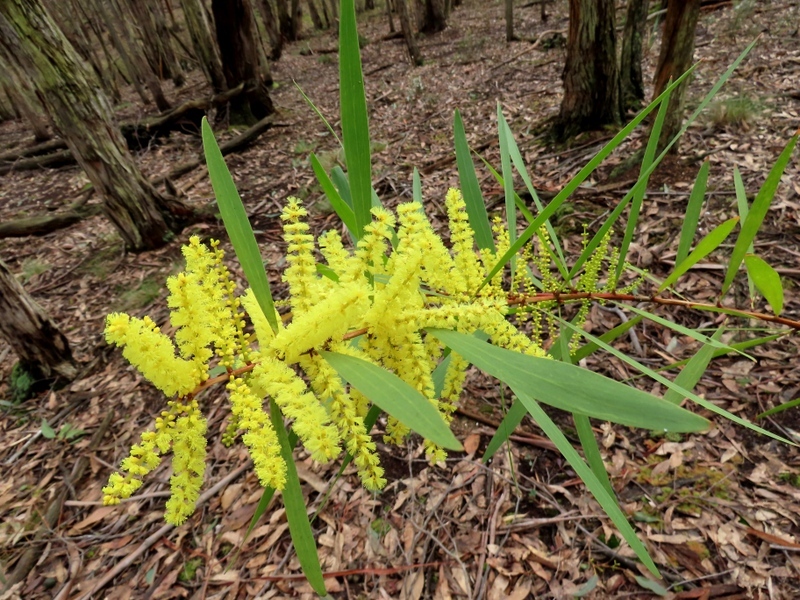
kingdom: Plantae
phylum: Tracheophyta
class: Magnoliopsida
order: Fabales
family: Fabaceae
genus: Acacia
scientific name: Acacia longifolia
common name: Sydney golden wattle
